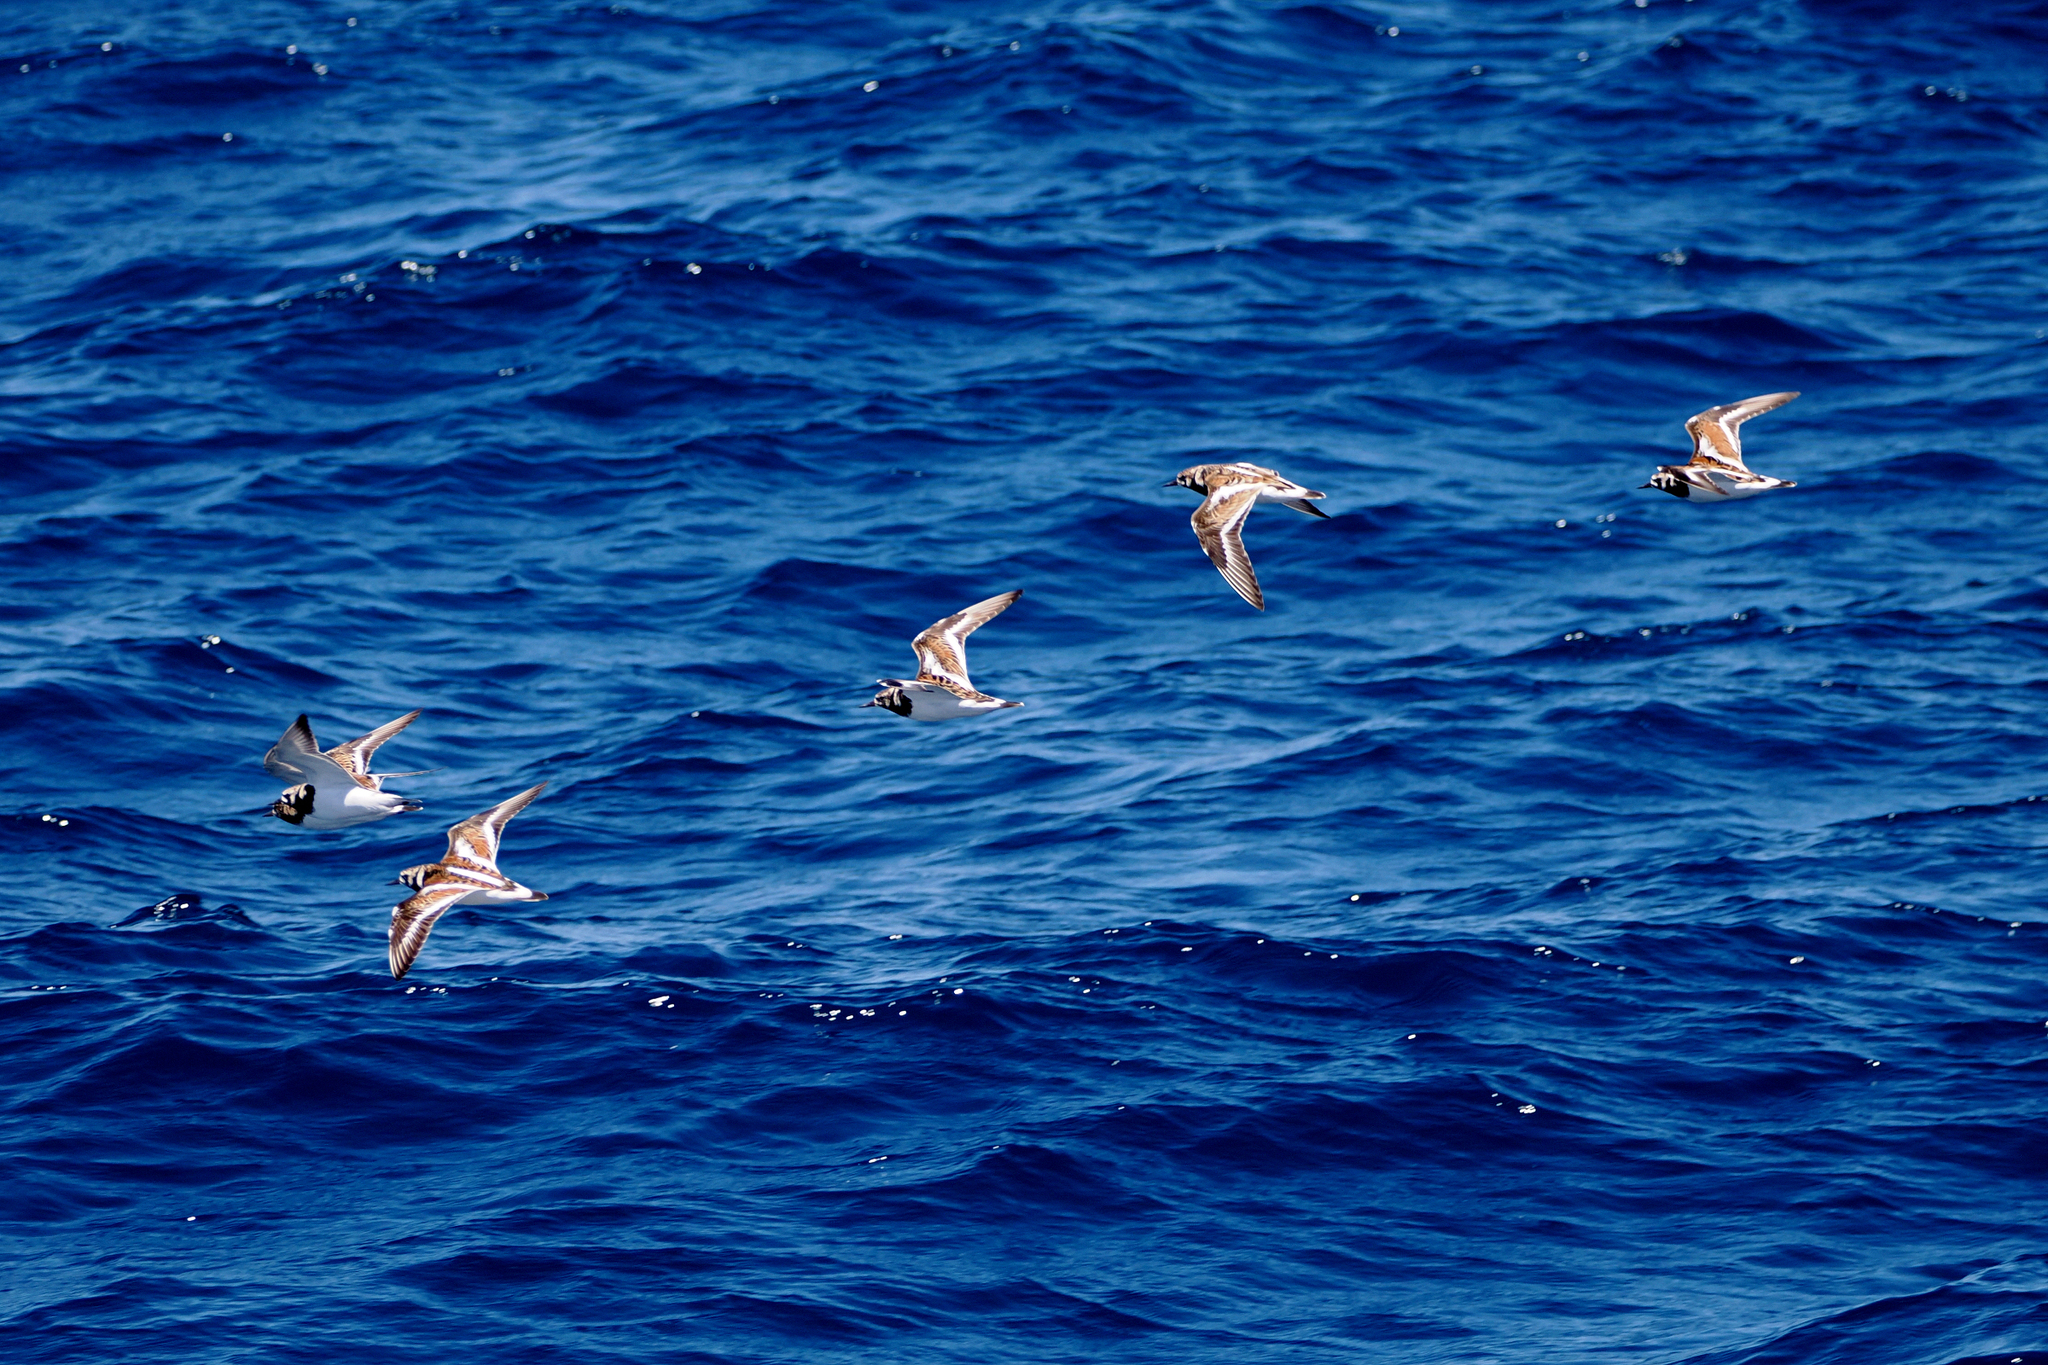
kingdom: Animalia
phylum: Chordata
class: Aves
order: Charadriiformes
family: Scolopacidae
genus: Arenaria
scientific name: Arenaria interpres
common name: Ruddy turnstone
